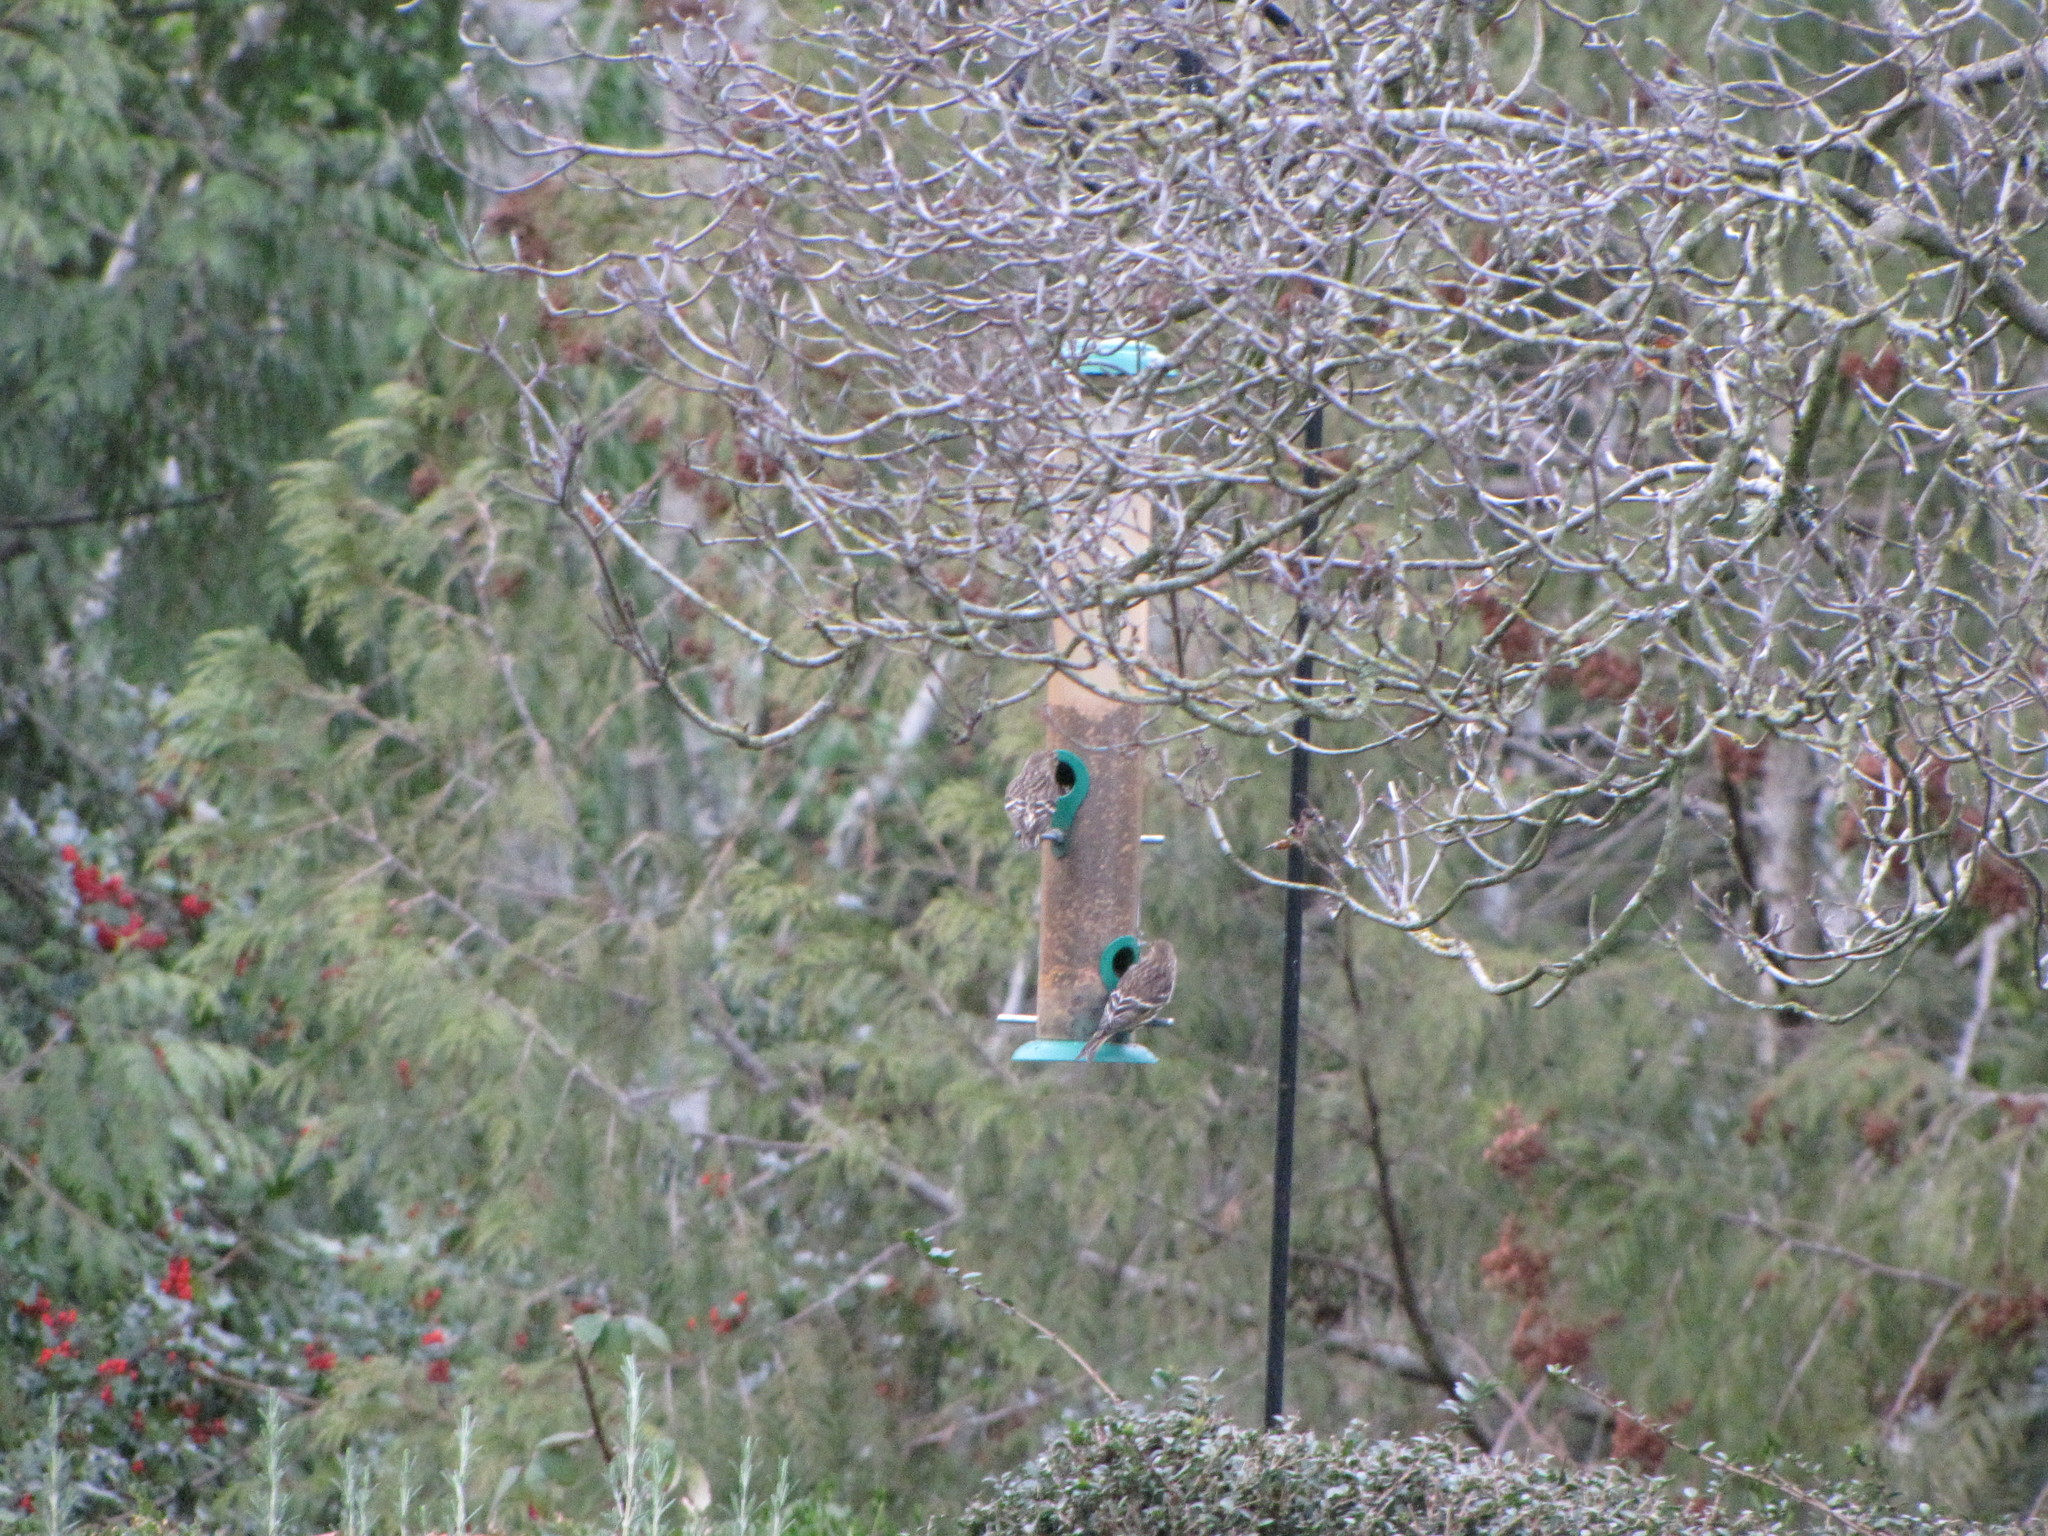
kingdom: Animalia
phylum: Chordata
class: Aves
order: Passeriformes
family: Fringillidae
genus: Spinus
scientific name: Spinus pinus
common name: Pine siskin
